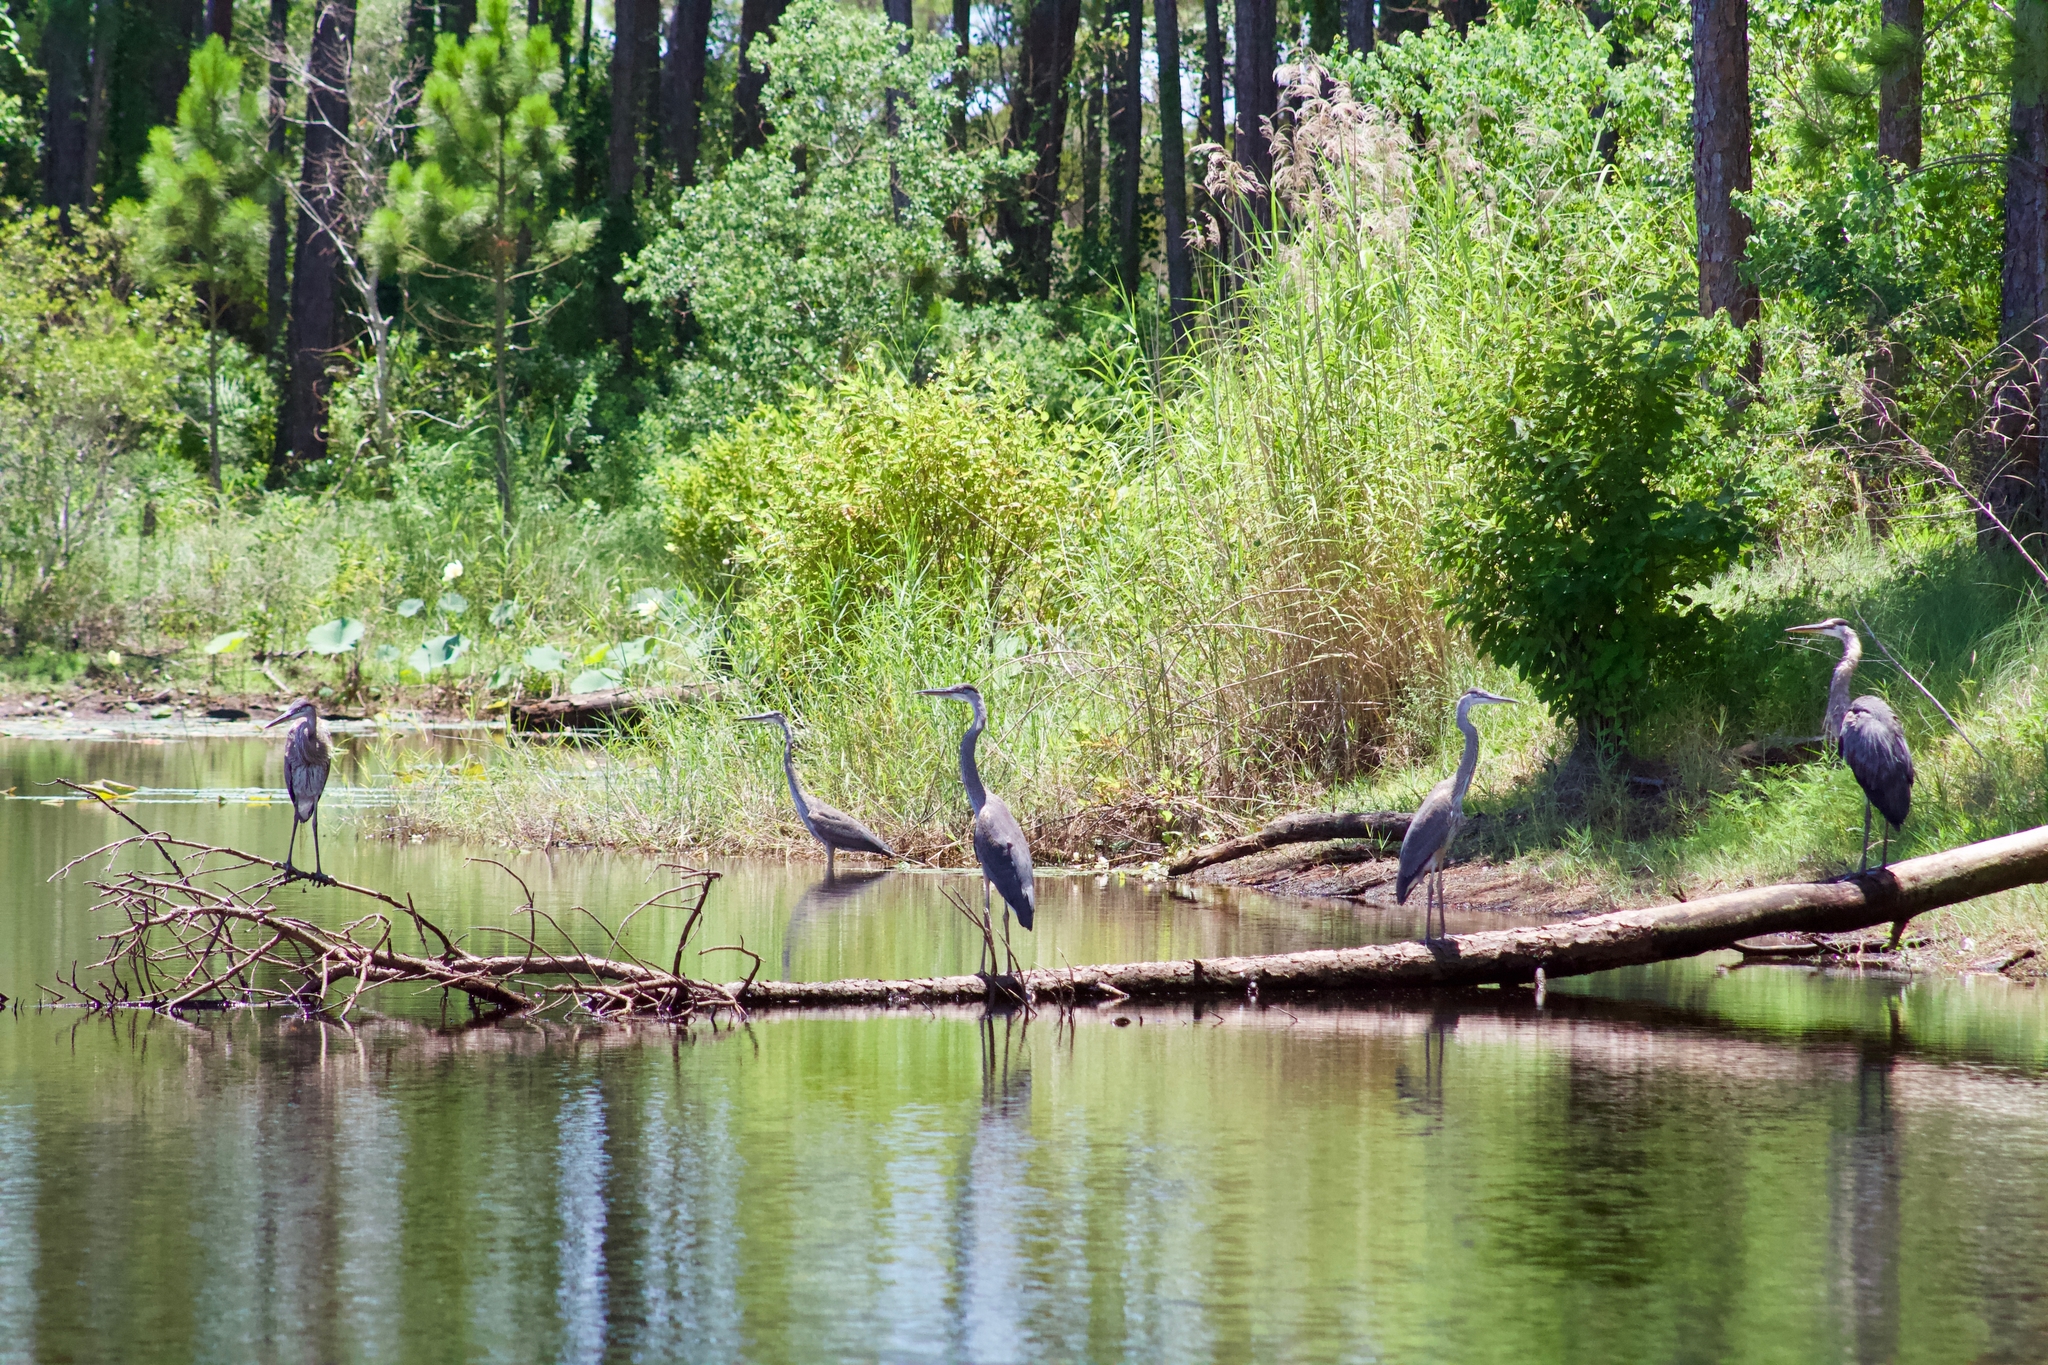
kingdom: Animalia
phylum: Chordata
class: Aves
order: Pelecaniformes
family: Ardeidae
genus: Ardea
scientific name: Ardea herodias
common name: Great blue heron
